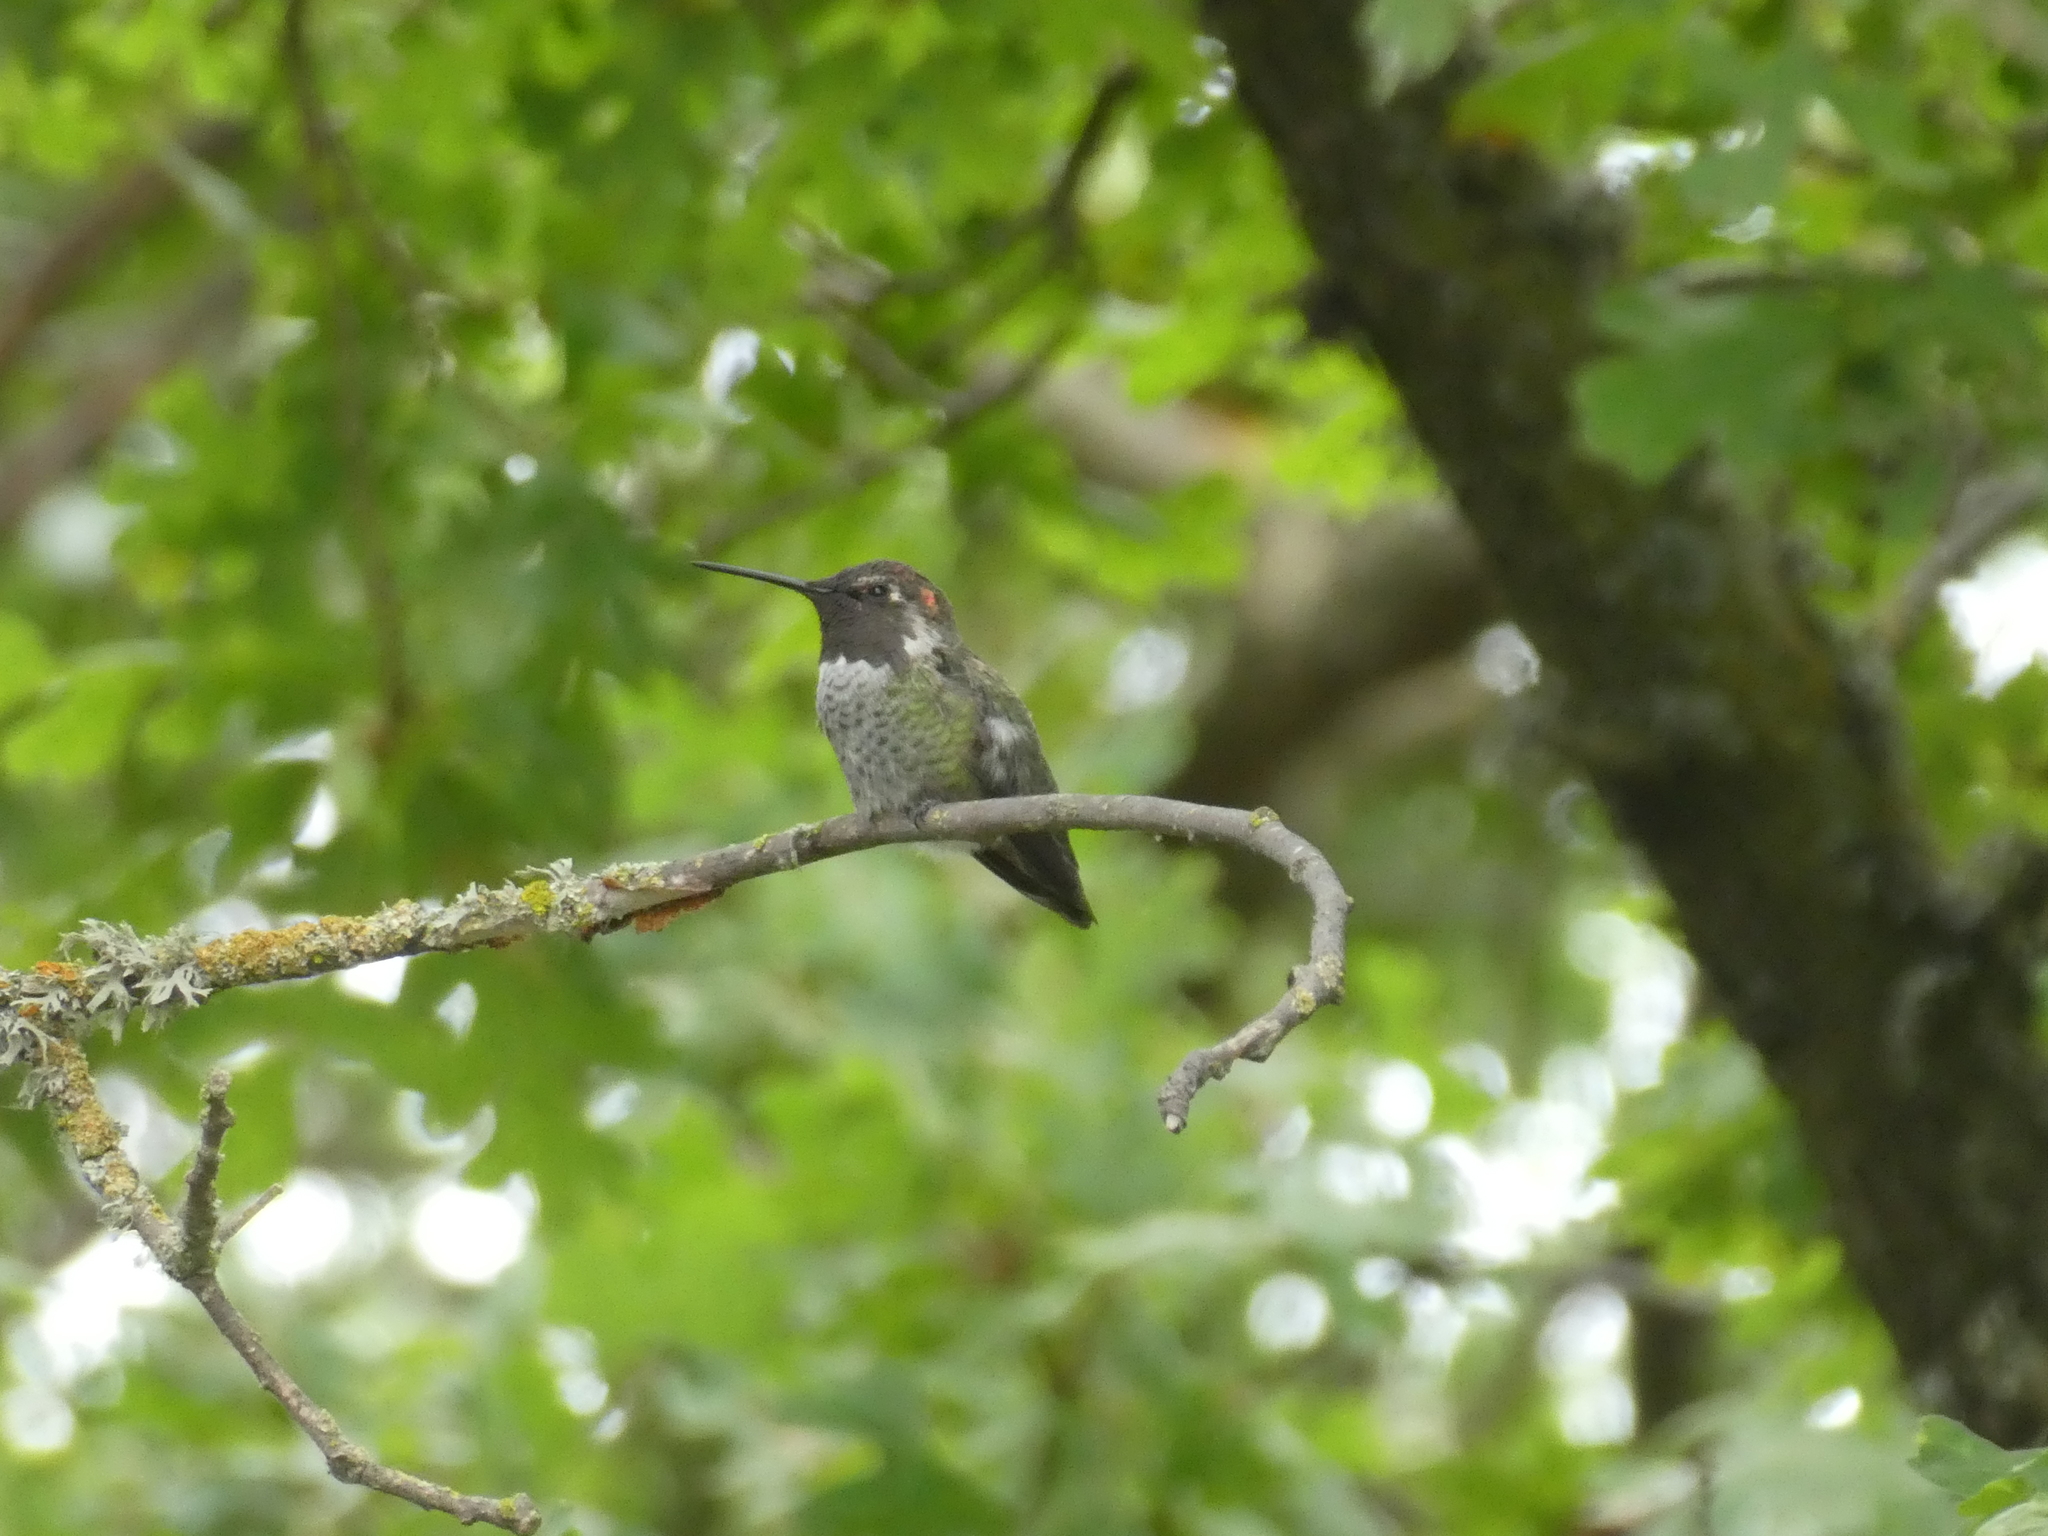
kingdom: Animalia
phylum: Chordata
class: Aves
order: Apodiformes
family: Trochilidae
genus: Calypte
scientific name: Calypte anna
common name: Anna's hummingbird
